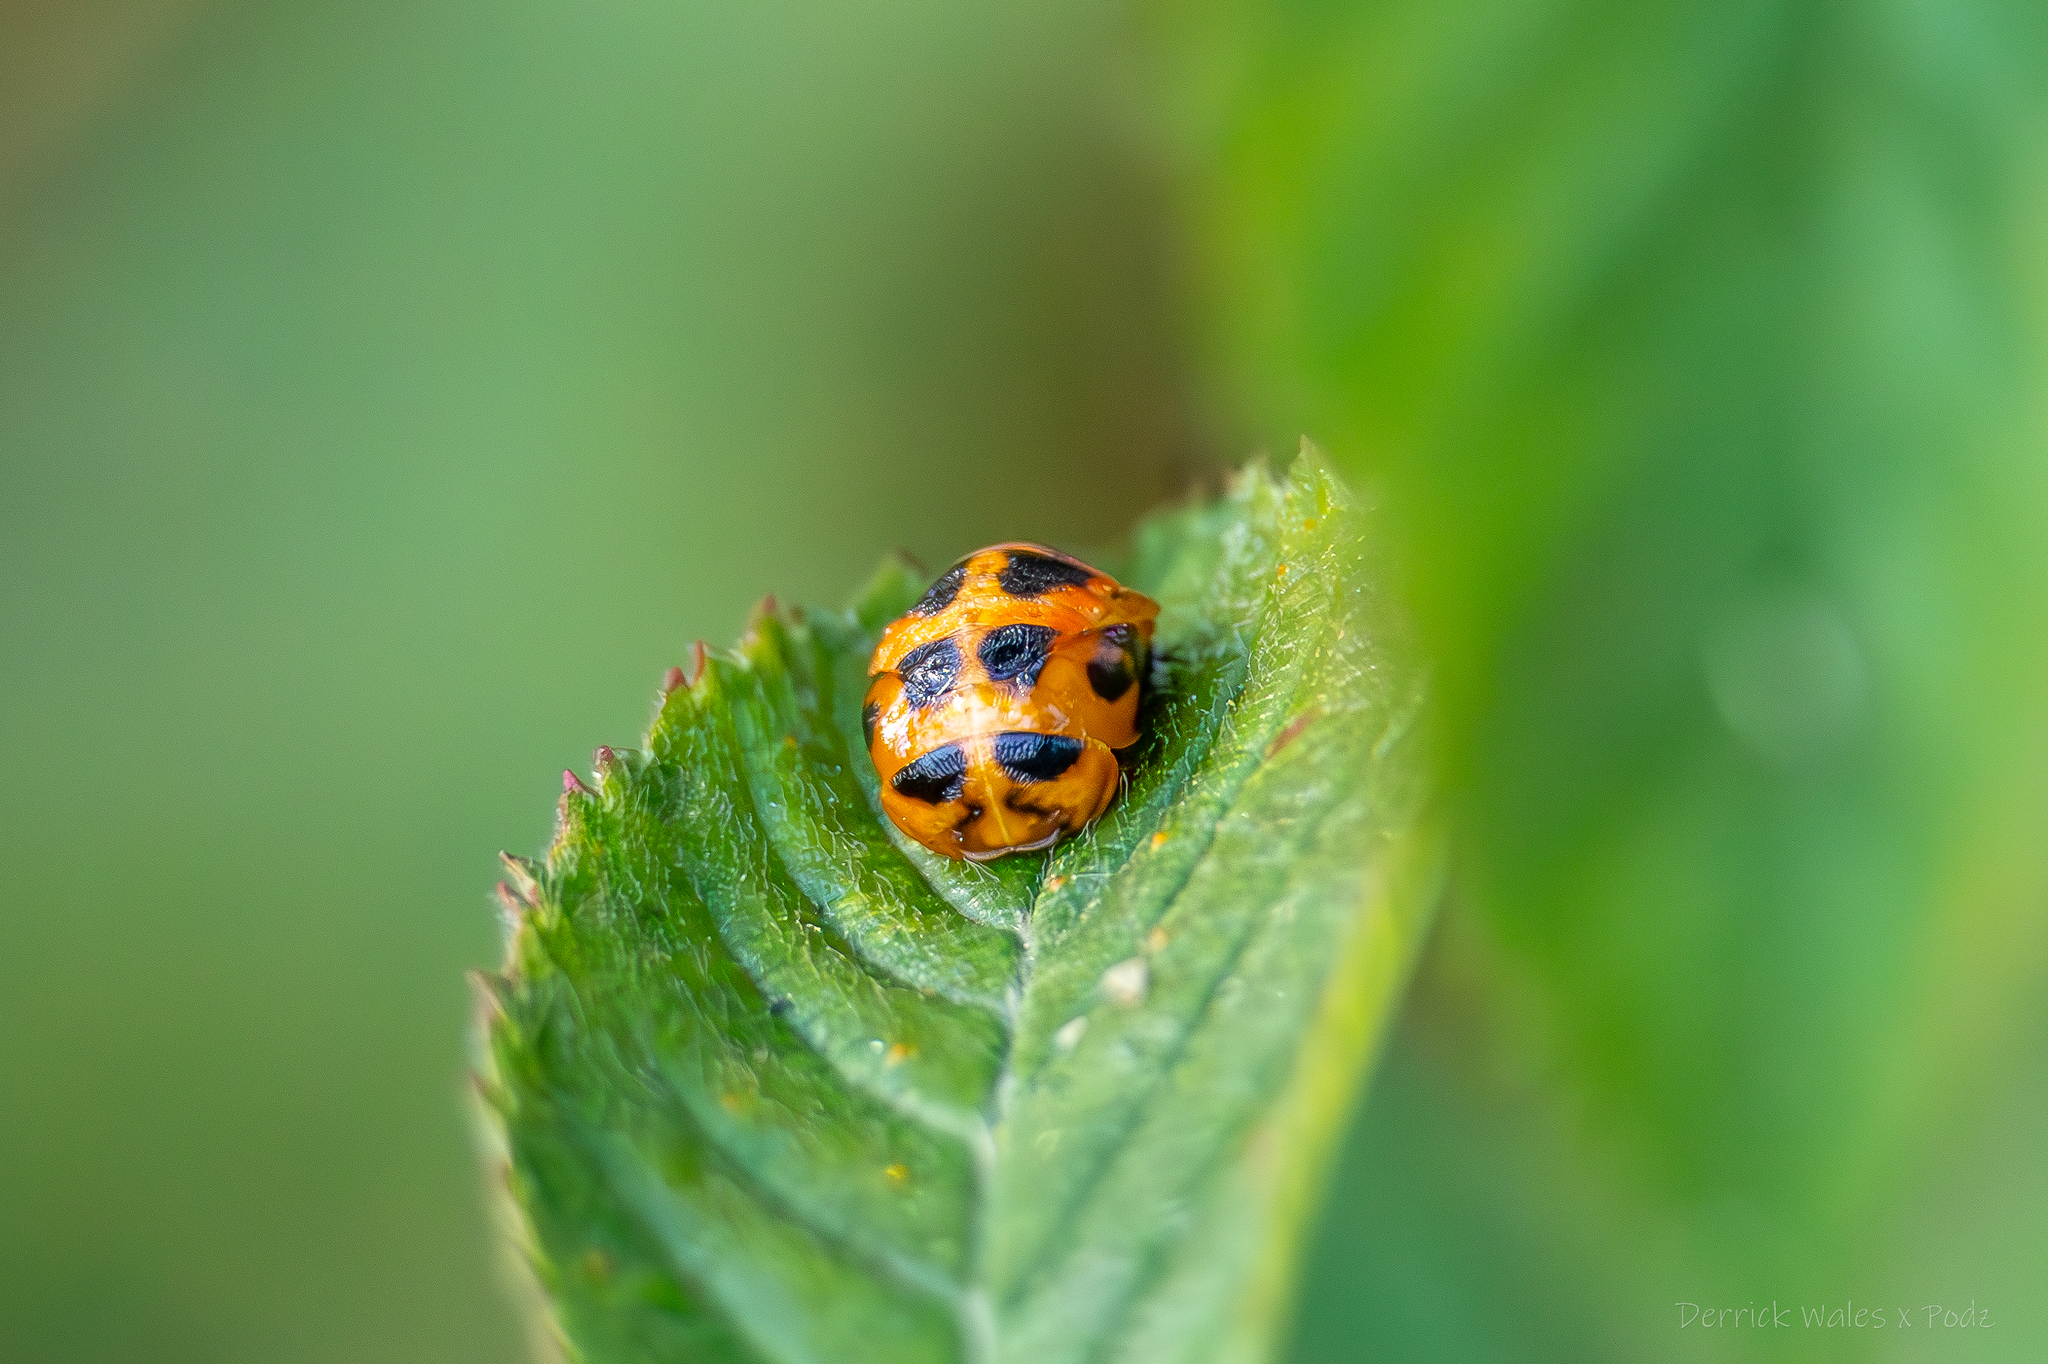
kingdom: Animalia
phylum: Arthropoda
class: Insecta
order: Coleoptera
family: Coccinellidae
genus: Harmonia
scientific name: Harmonia axyridis
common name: Harlequin ladybird
